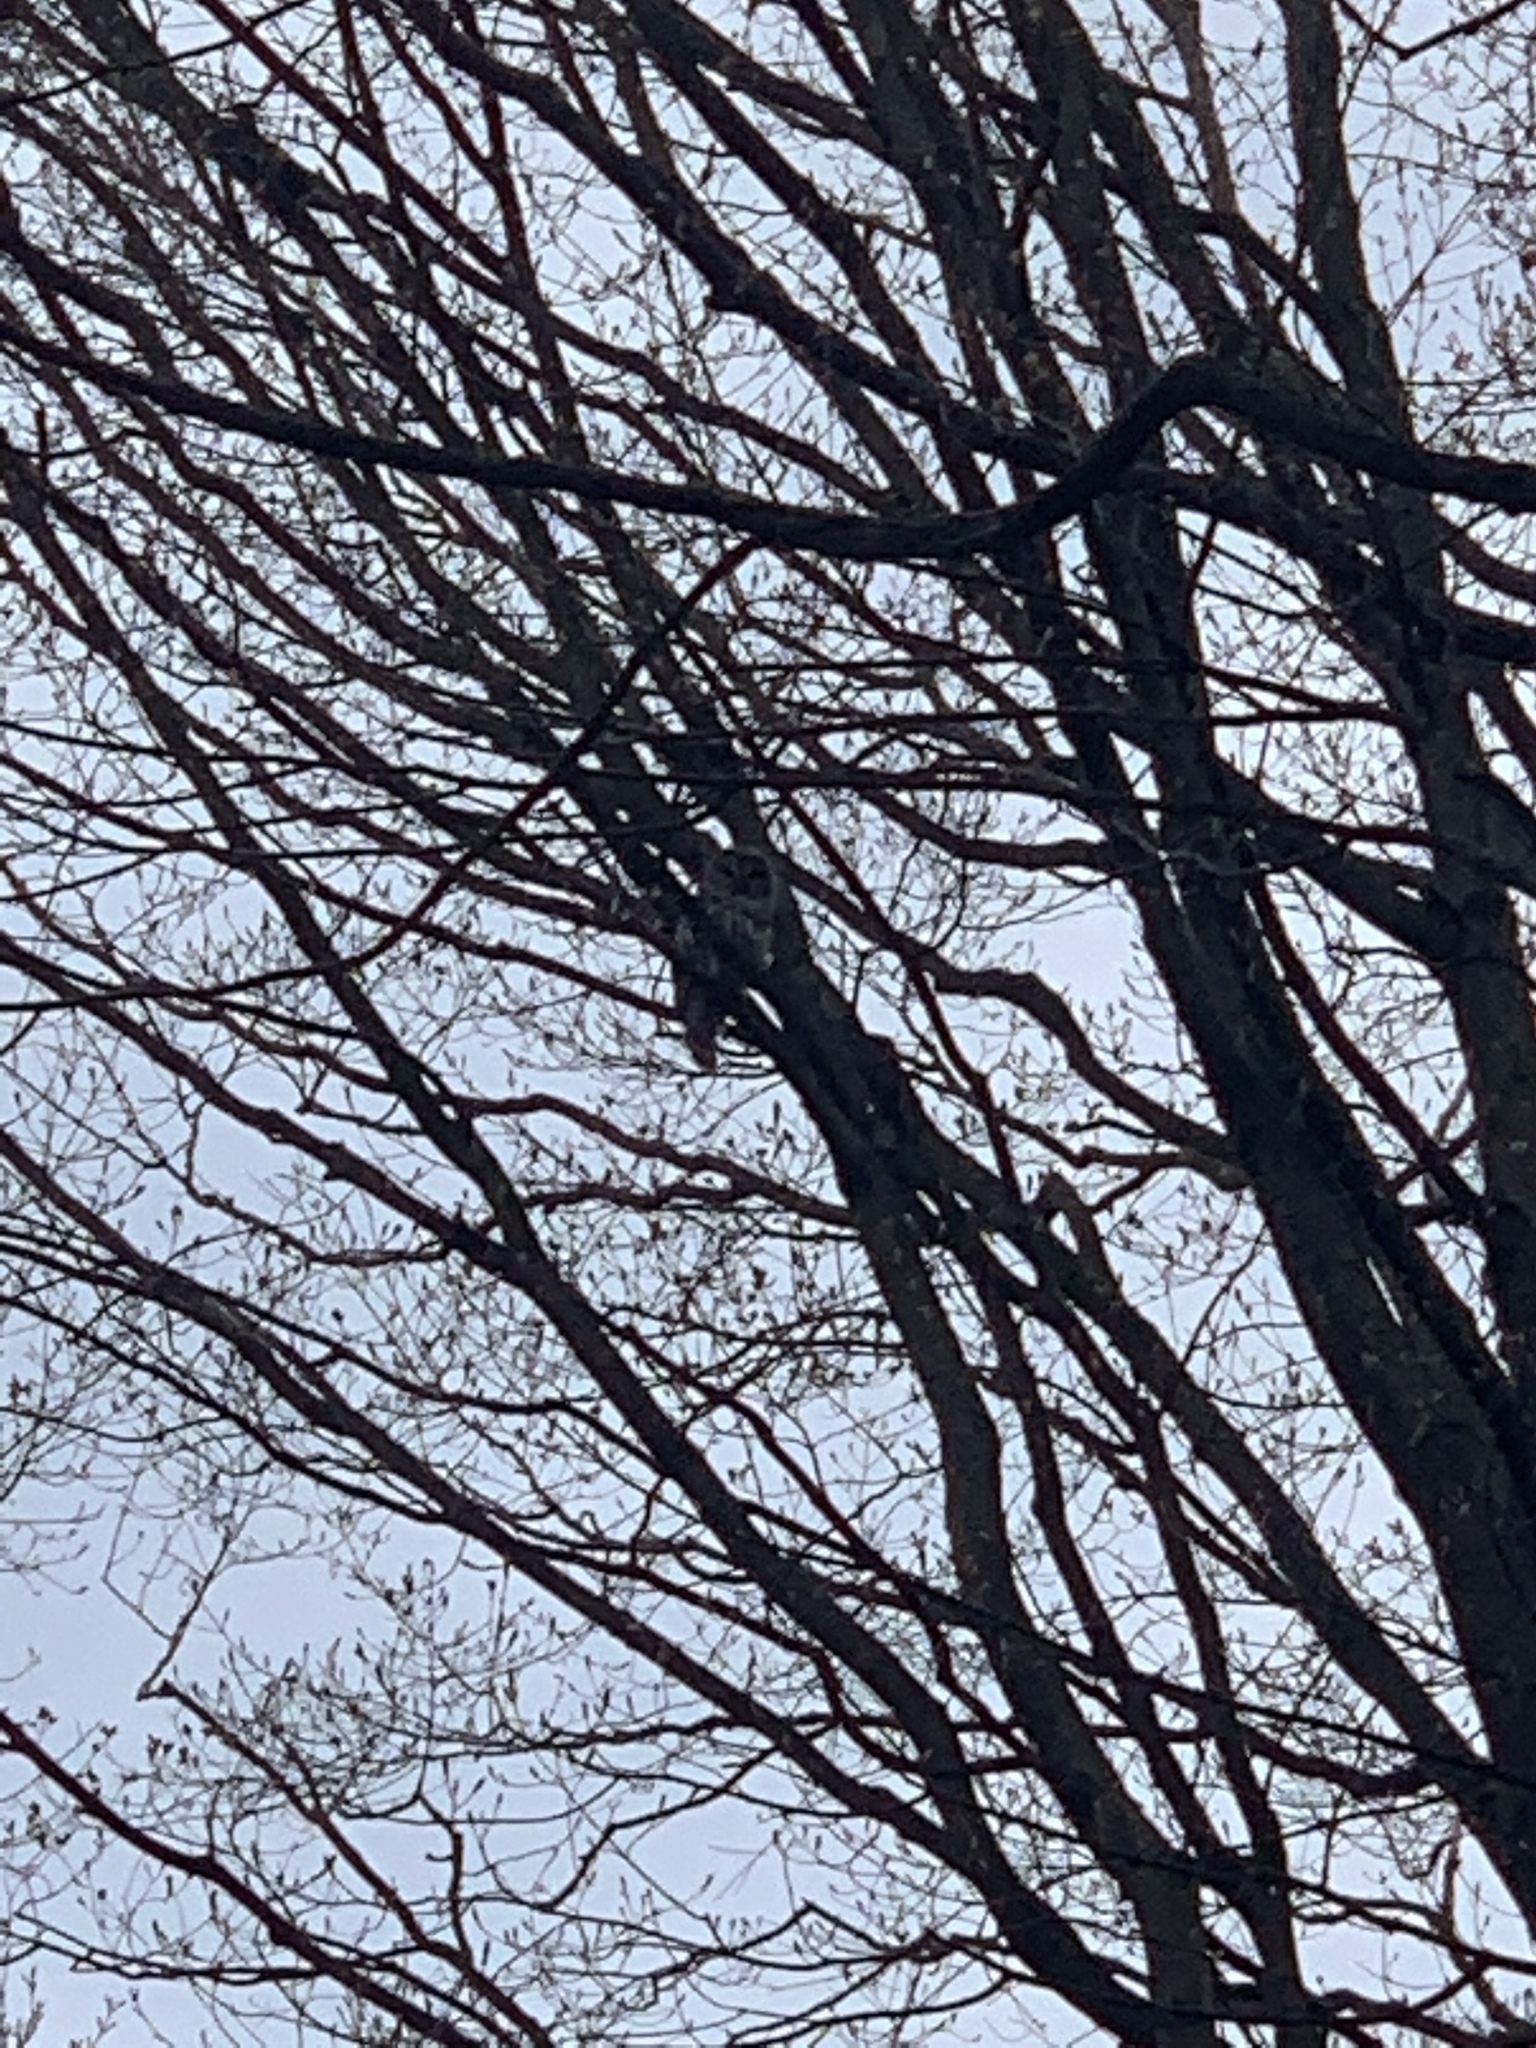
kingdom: Animalia
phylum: Chordata
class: Aves
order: Strigiformes
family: Strigidae
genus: Strix
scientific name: Strix varia
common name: Barred owl
